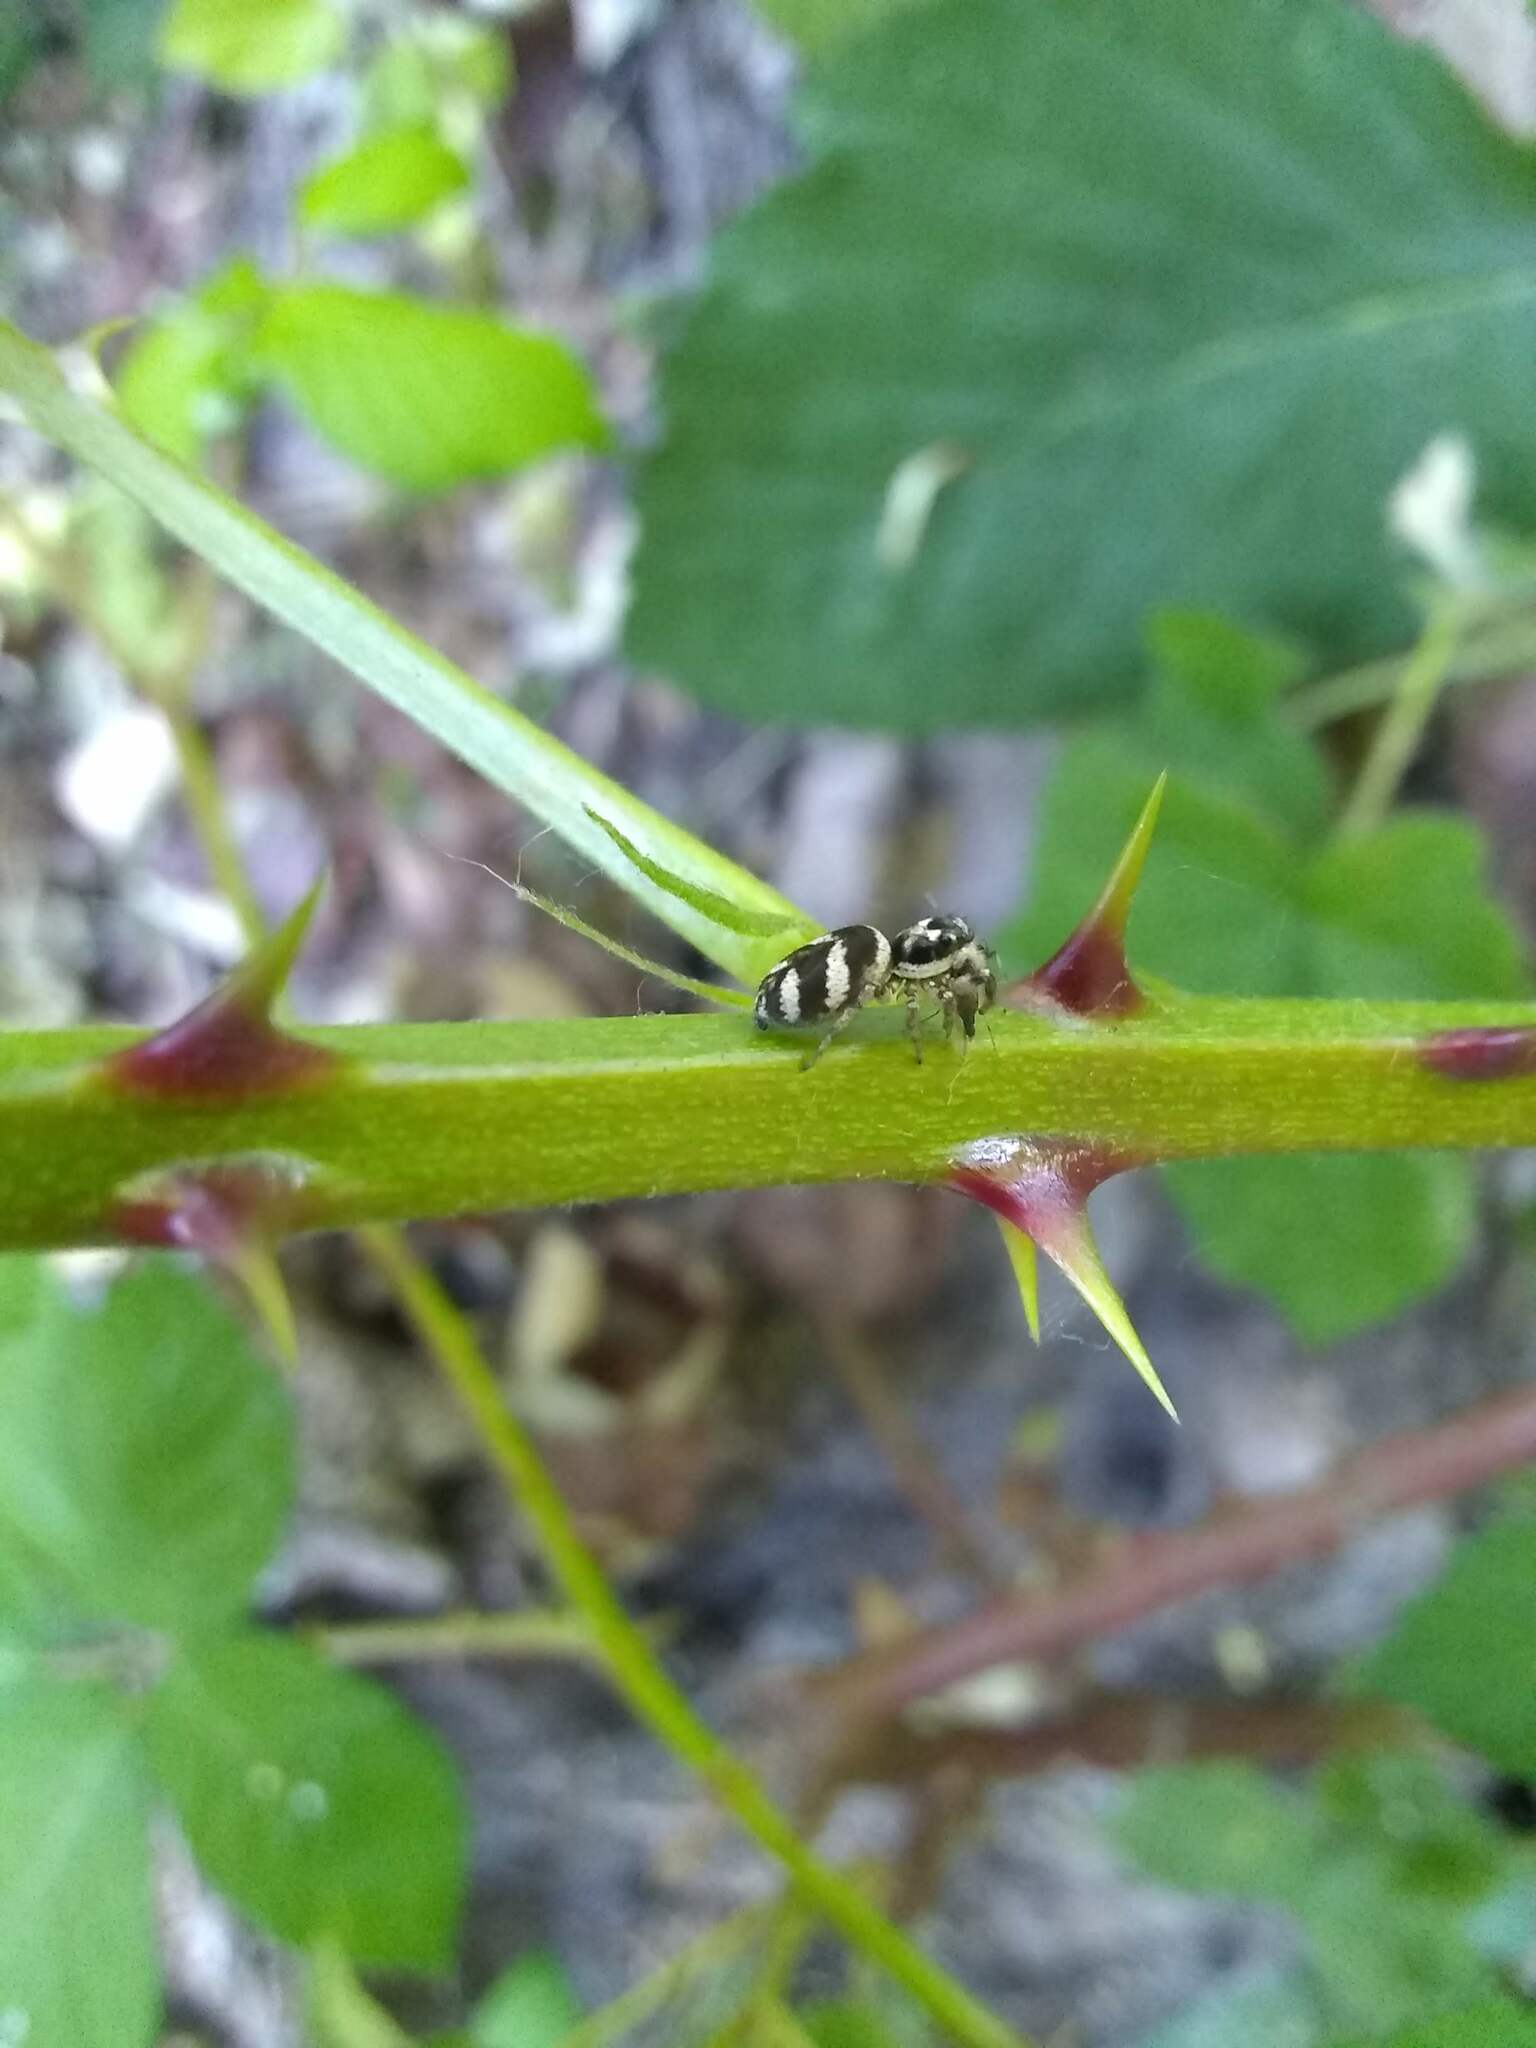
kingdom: Animalia
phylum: Arthropoda
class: Arachnida
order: Araneae
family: Salticidae
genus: Salticus
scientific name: Salticus scenicus
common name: Zebra jumper
